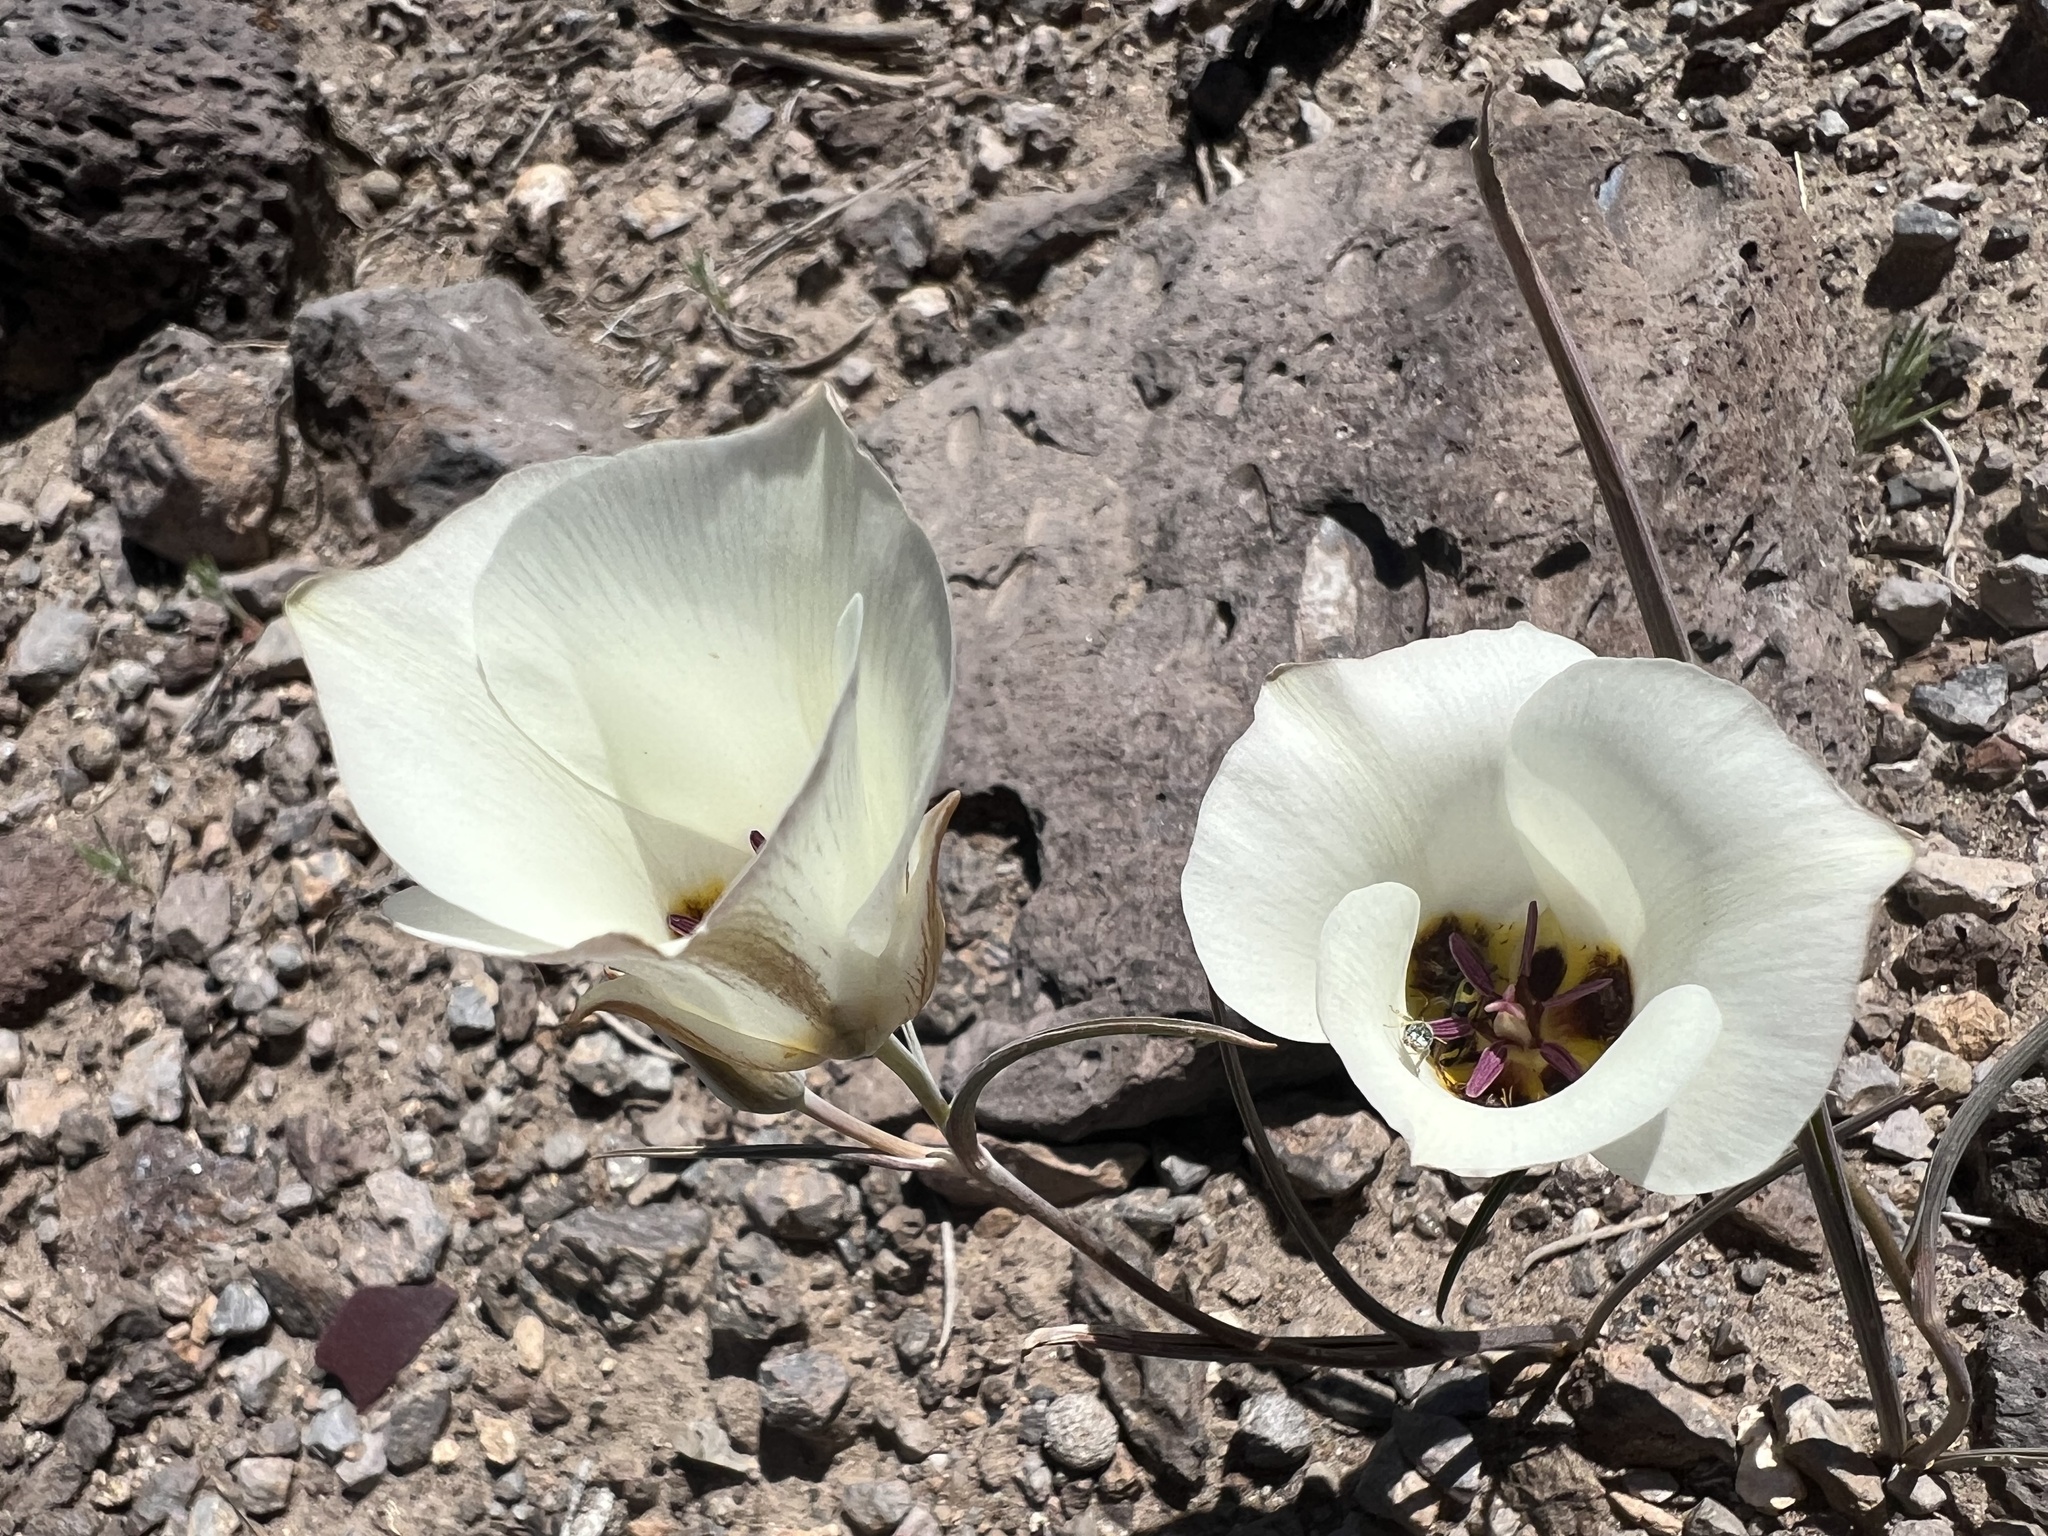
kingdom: Plantae
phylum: Tracheophyta
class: Liliopsida
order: Liliales
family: Liliaceae
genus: Calochortus
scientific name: Calochortus bruneaunis
